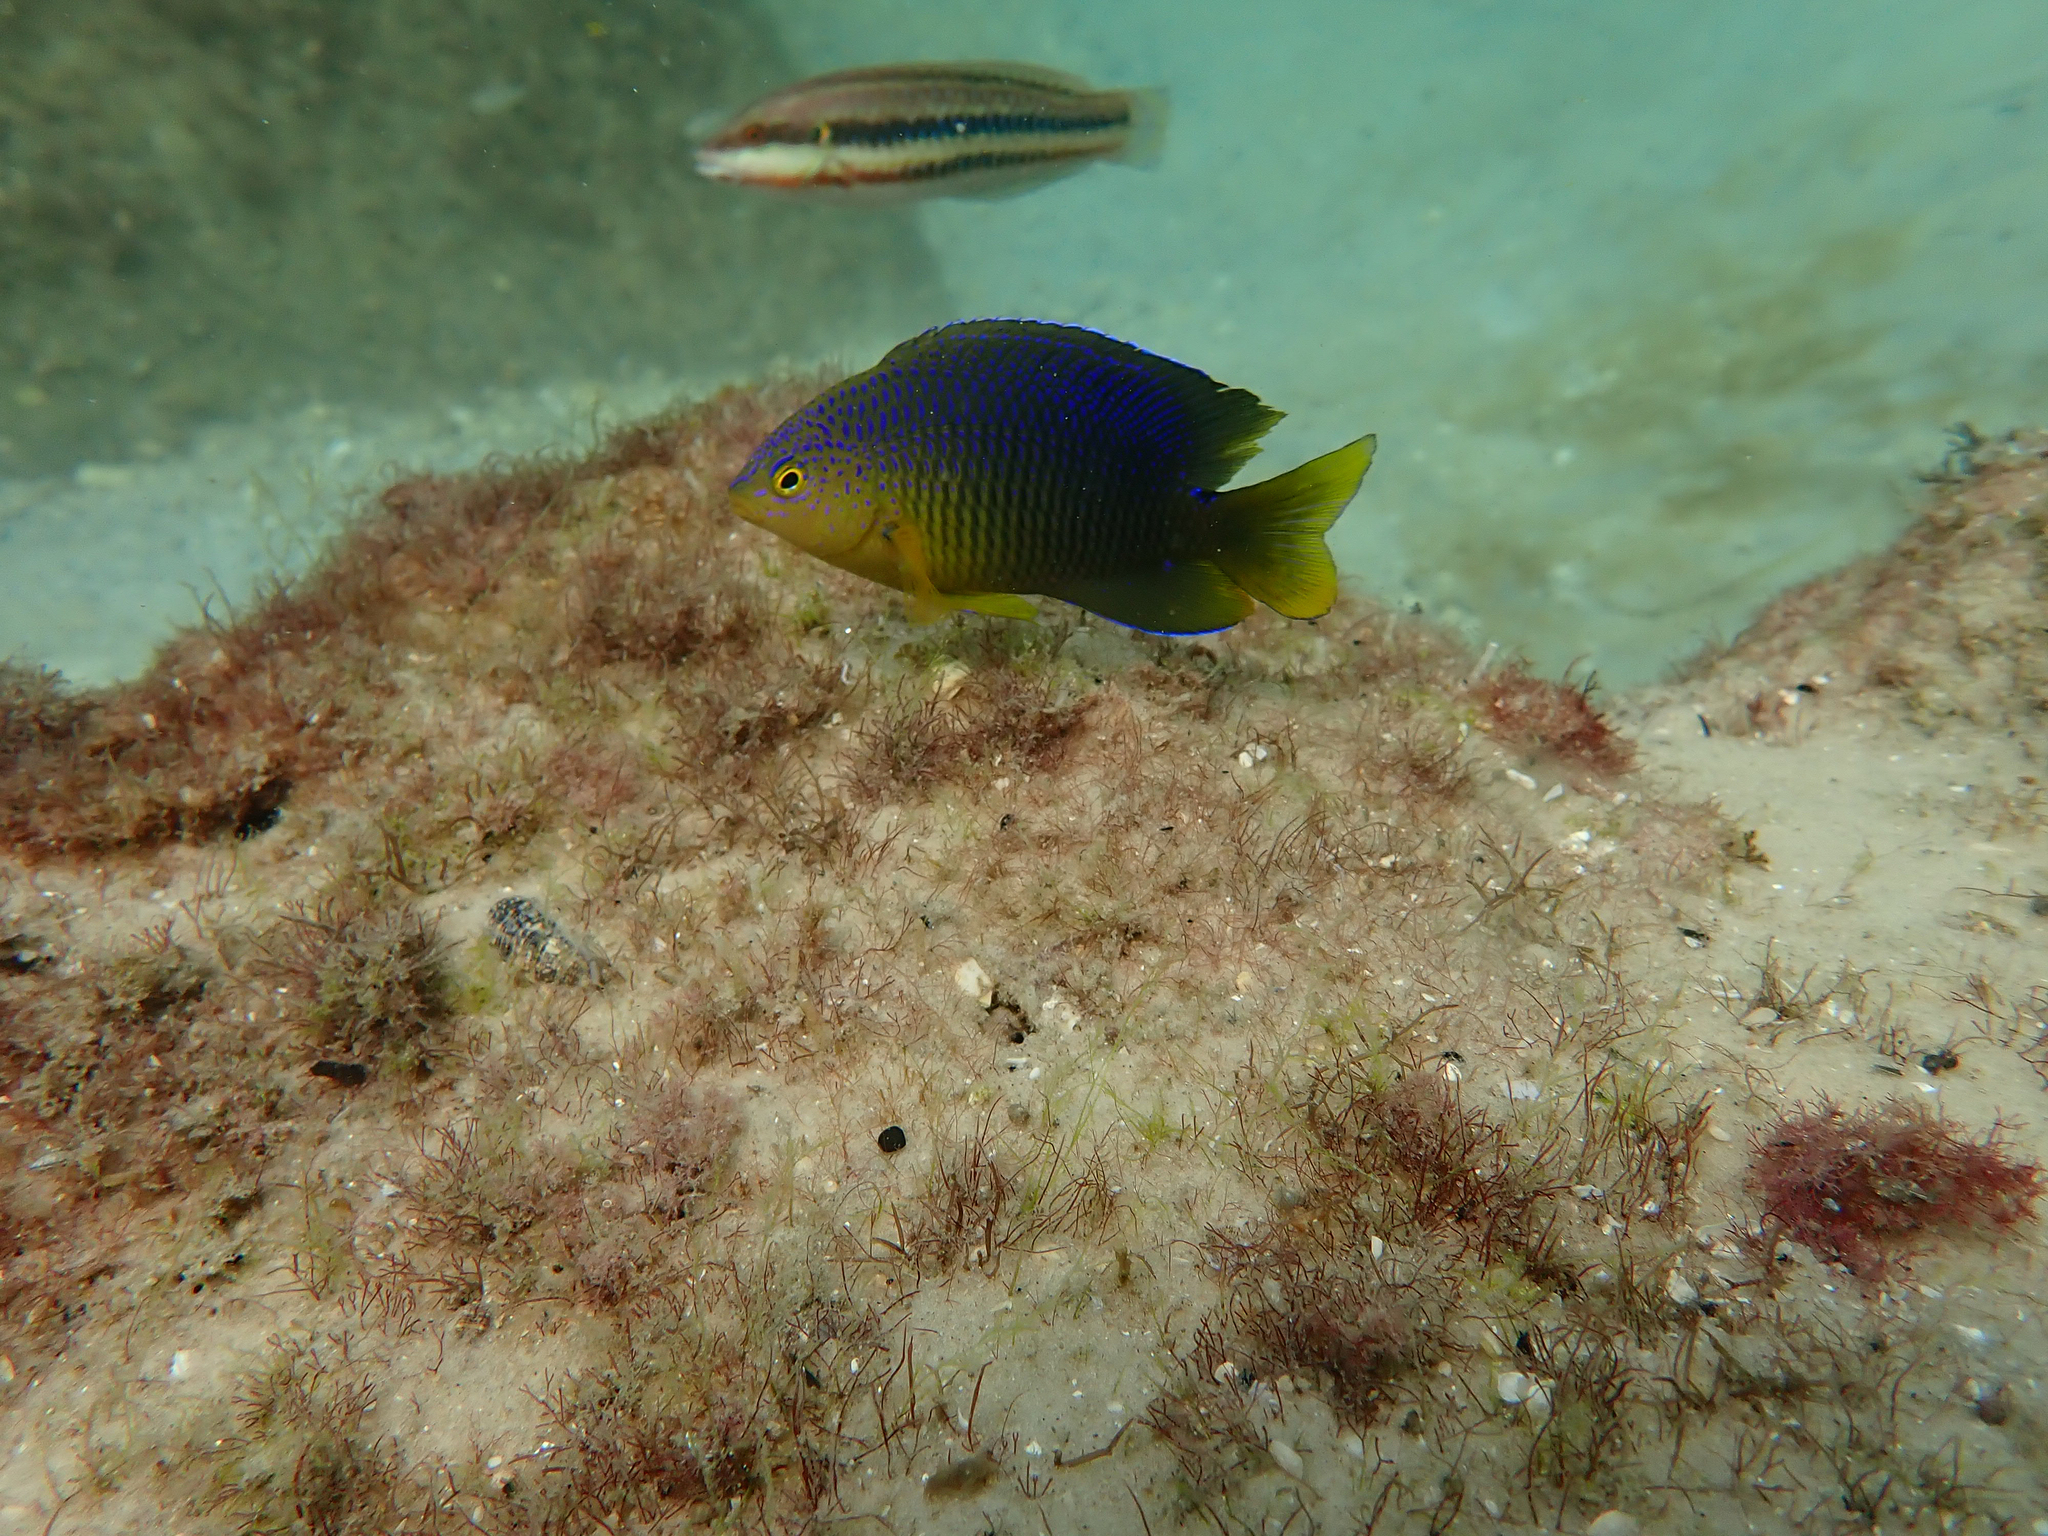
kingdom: Animalia
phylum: Chordata
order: Perciformes
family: Pomacentridae
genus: Stegastes
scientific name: Stegastes xanthurus
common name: Cocoa damselfish
